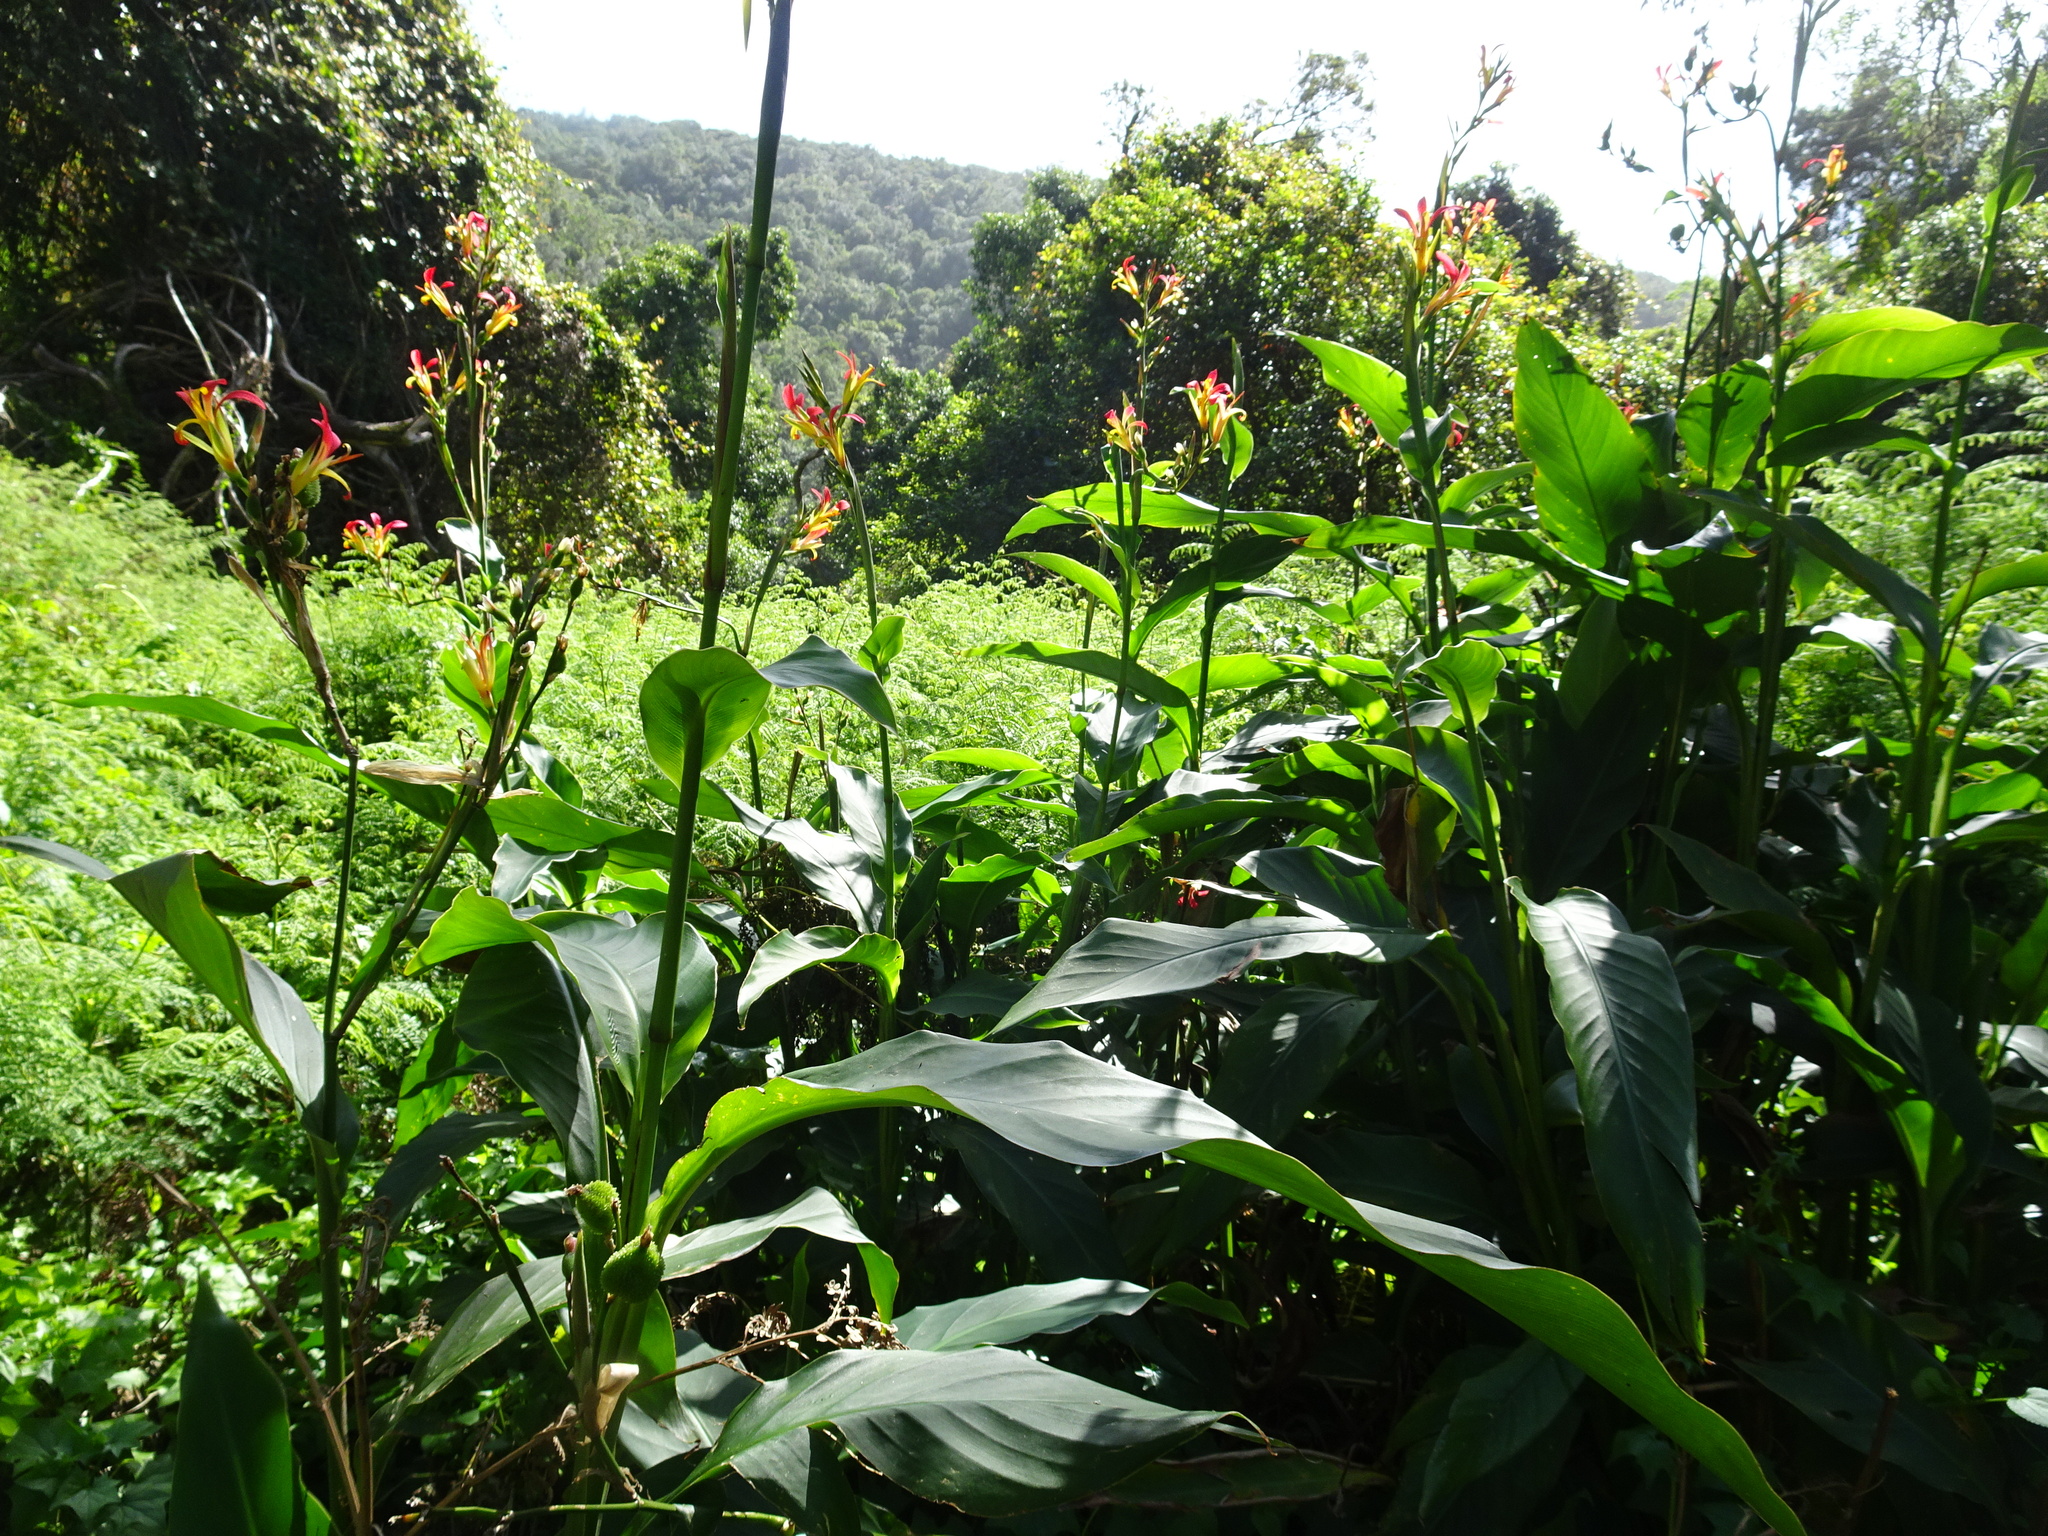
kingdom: Plantae
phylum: Tracheophyta
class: Liliopsida
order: Zingiberales
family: Cannaceae
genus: Canna
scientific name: Canna indica
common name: Indian shot
